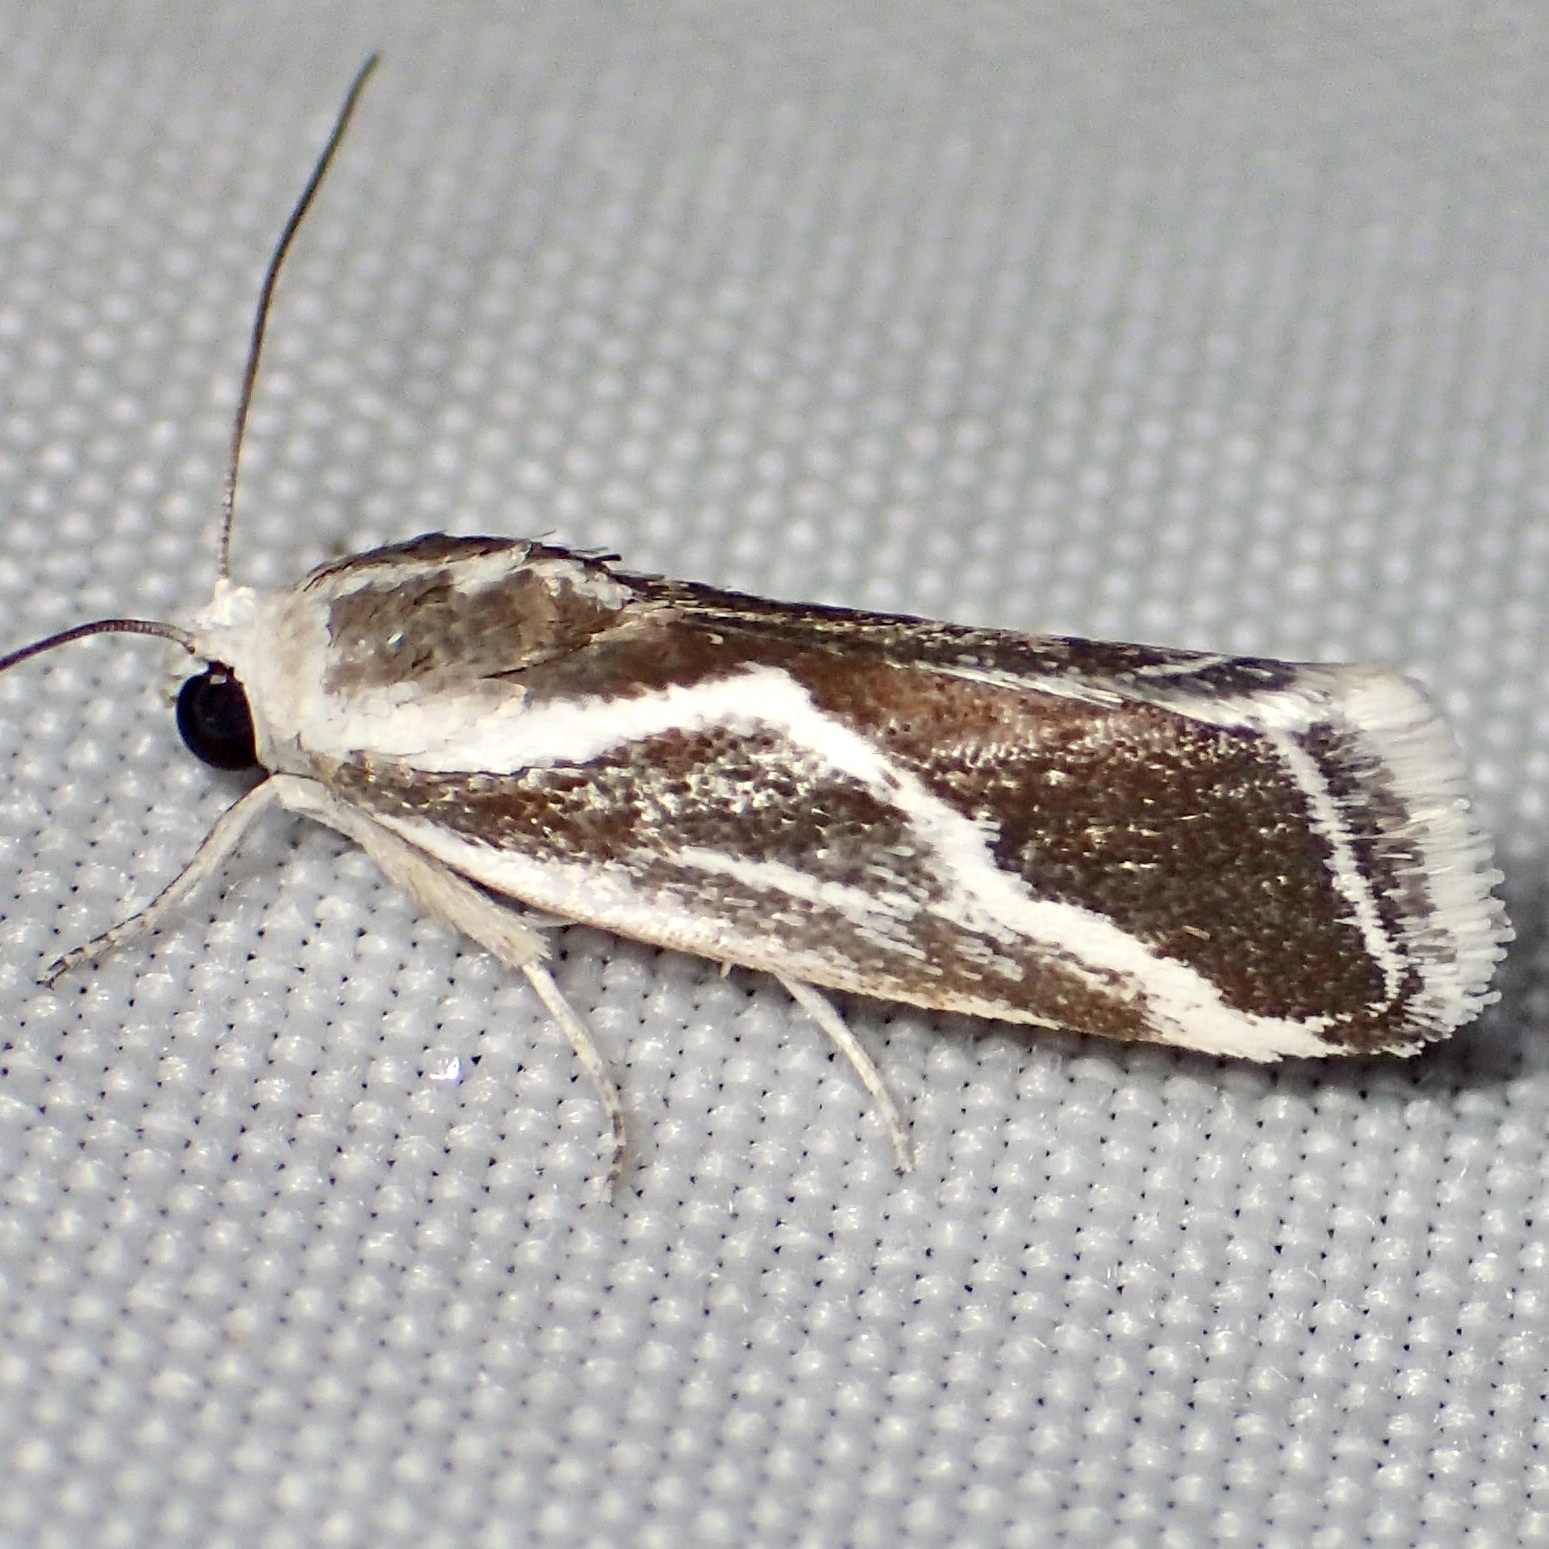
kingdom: Animalia
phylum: Arthropoda
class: Insecta
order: Lepidoptera
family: Noctuidae
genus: Acontia
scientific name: Acontia alata
